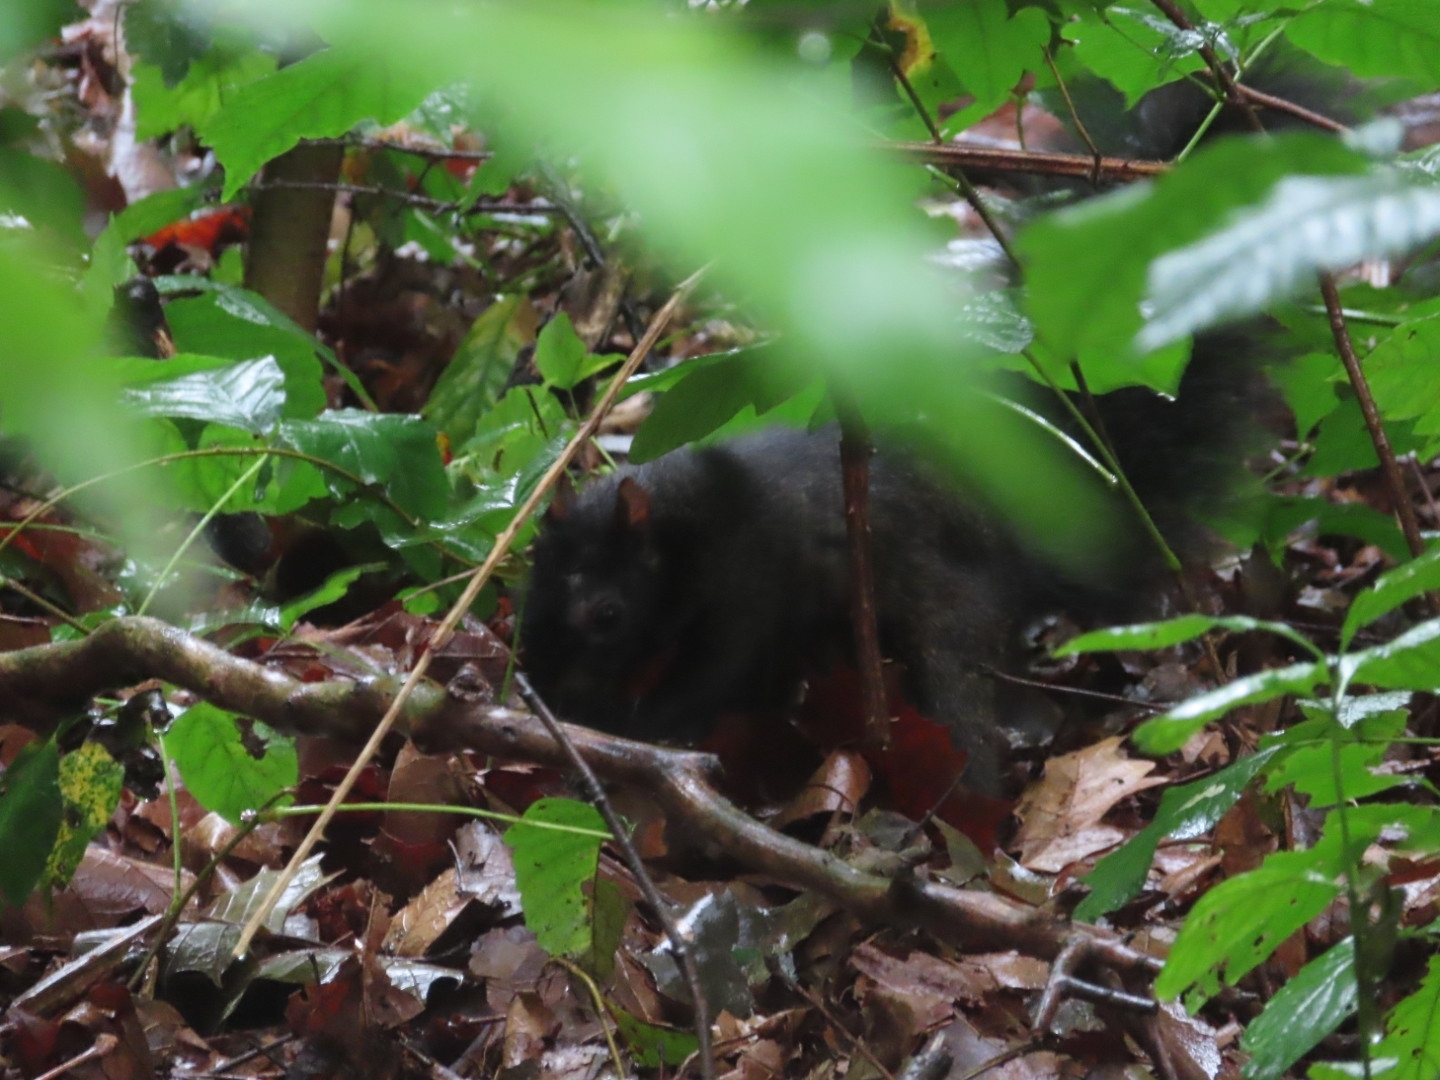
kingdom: Animalia
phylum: Chordata
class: Mammalia
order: Rodentia
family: Sciuridae
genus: Sciurus
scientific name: Sciurus carolinensis
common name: Eastern gray squirrel
